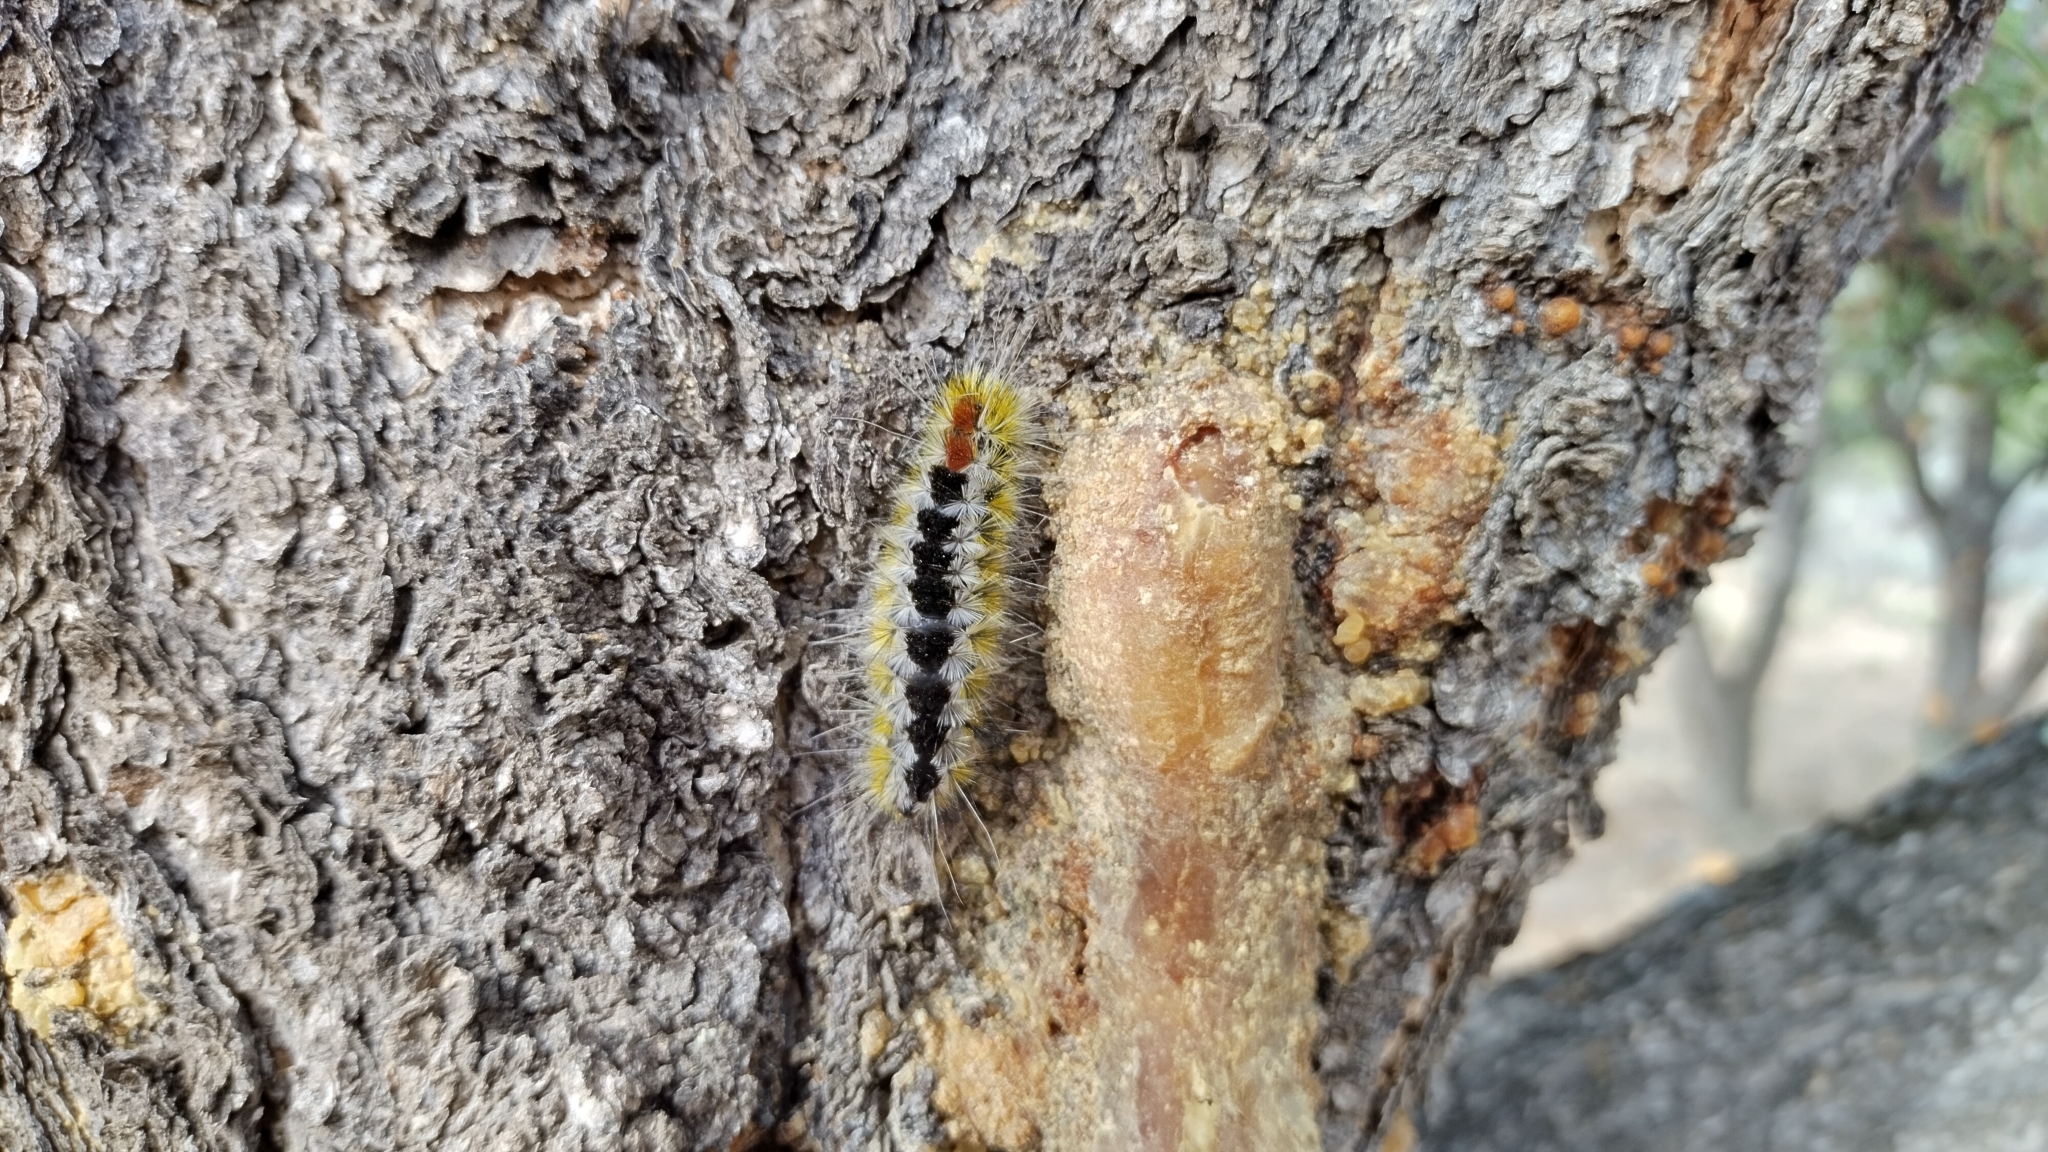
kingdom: Animalia
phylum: Arthropoda
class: Insecta
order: Lepidoptera
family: Erebidae
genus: Lophocampa
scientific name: Lophocampa ingens
